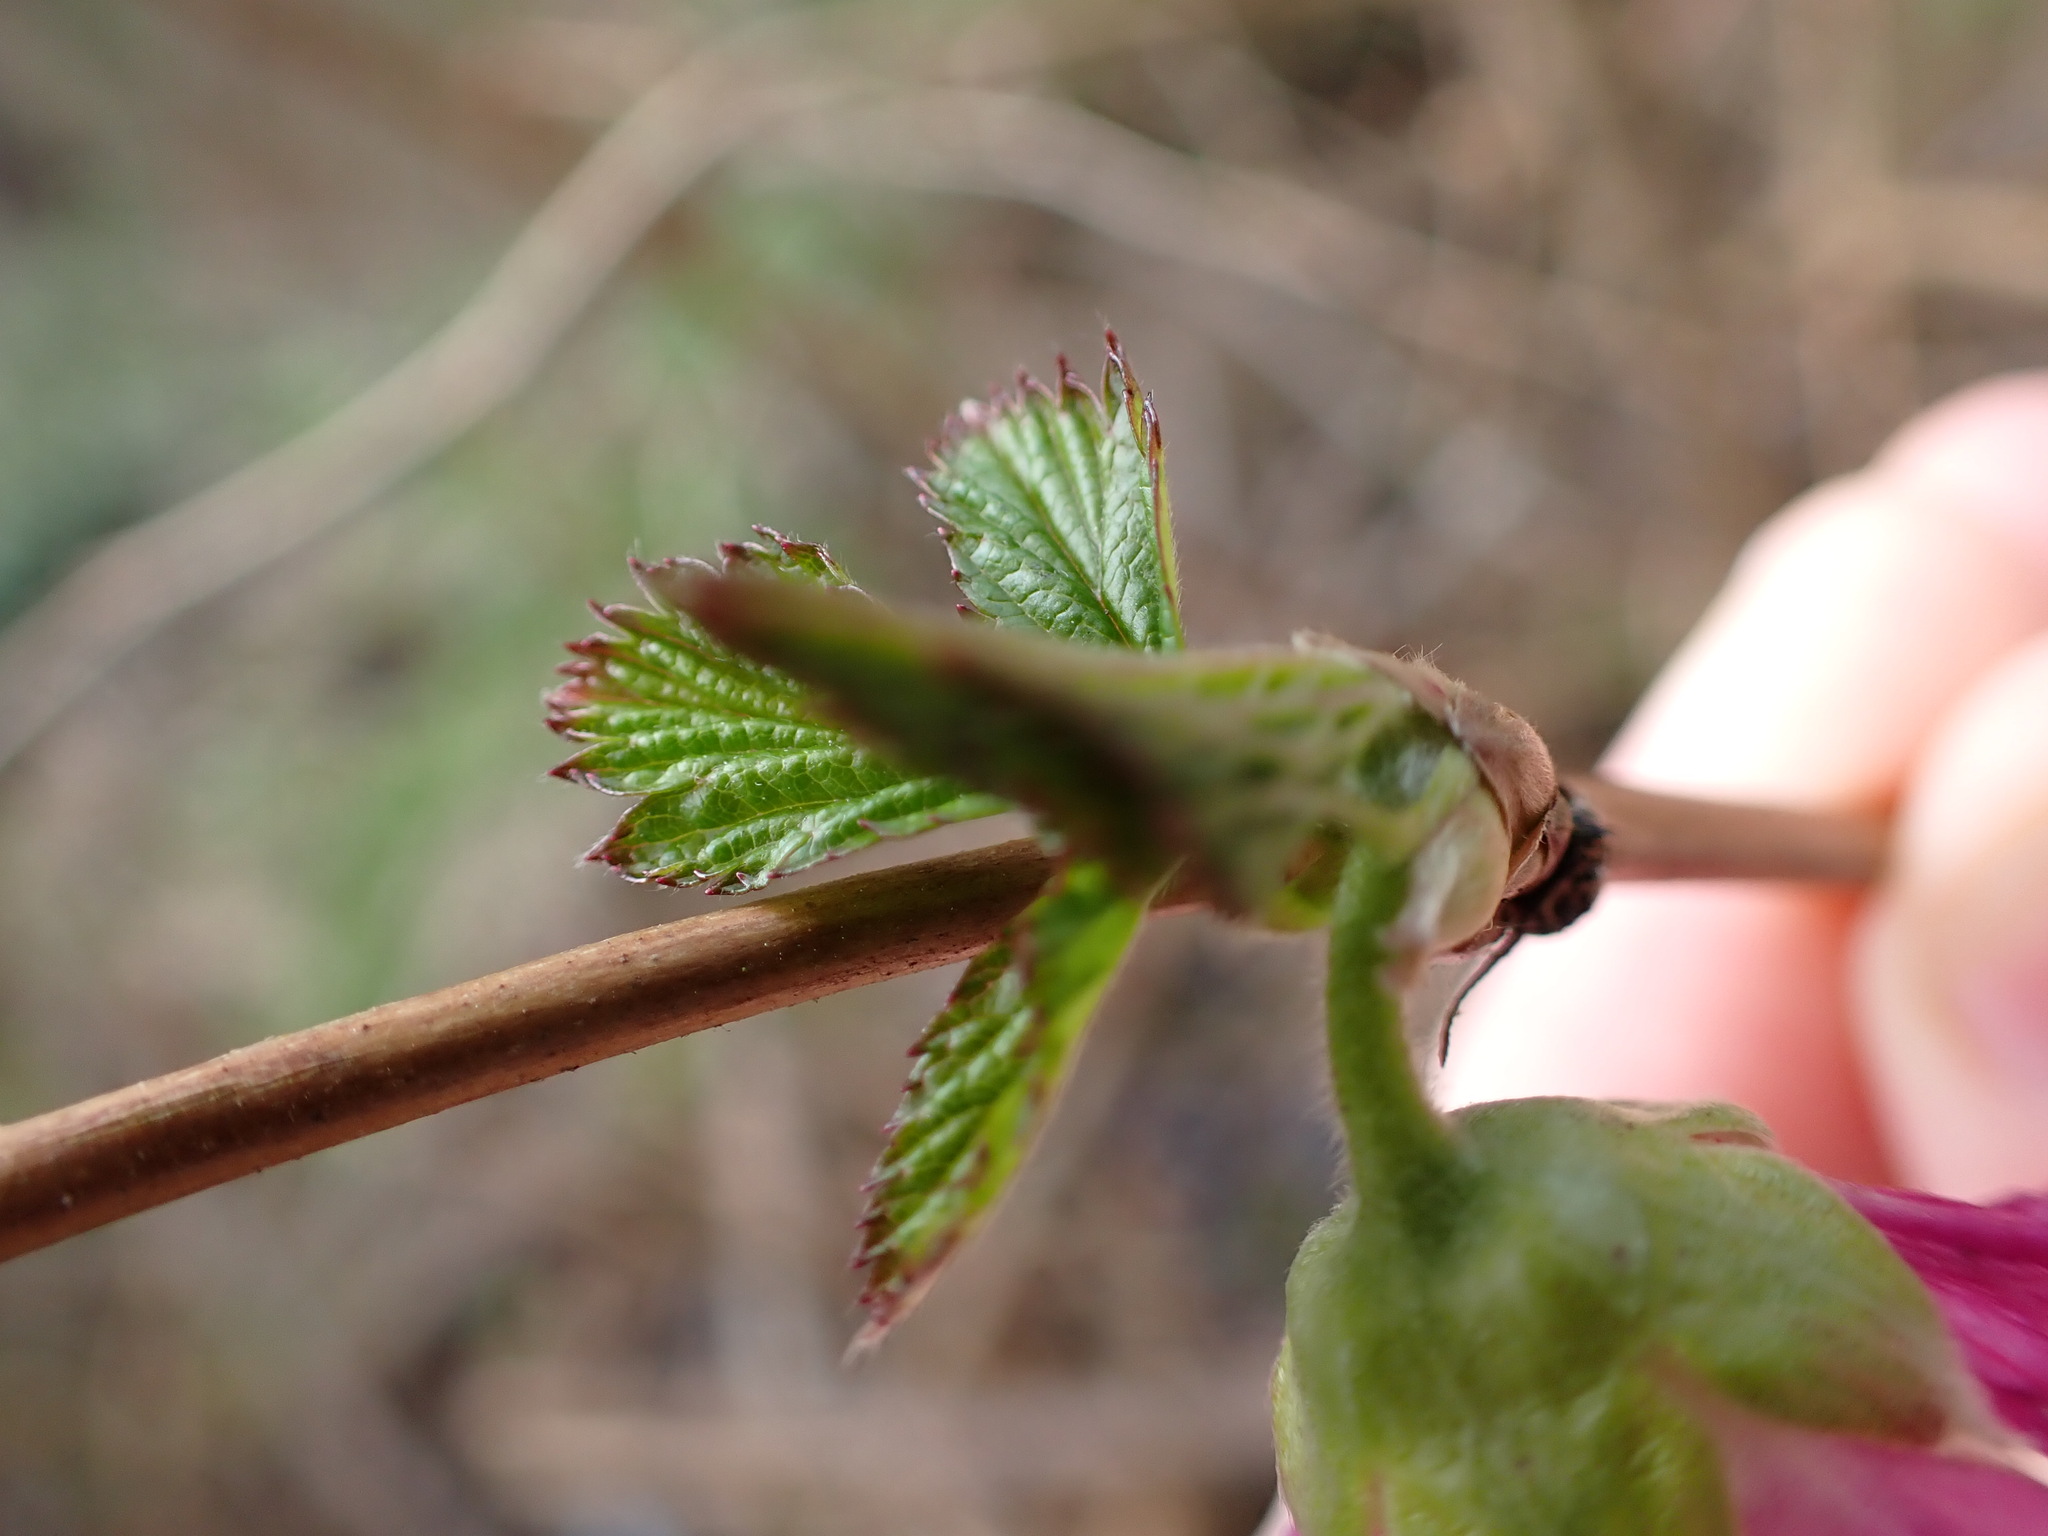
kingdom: Plantae
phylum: Tracheophyta
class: Magnoliopsida
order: Rosales
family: Rosaceae
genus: Rubus
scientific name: Rubus spectabilis
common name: Salmonberry
